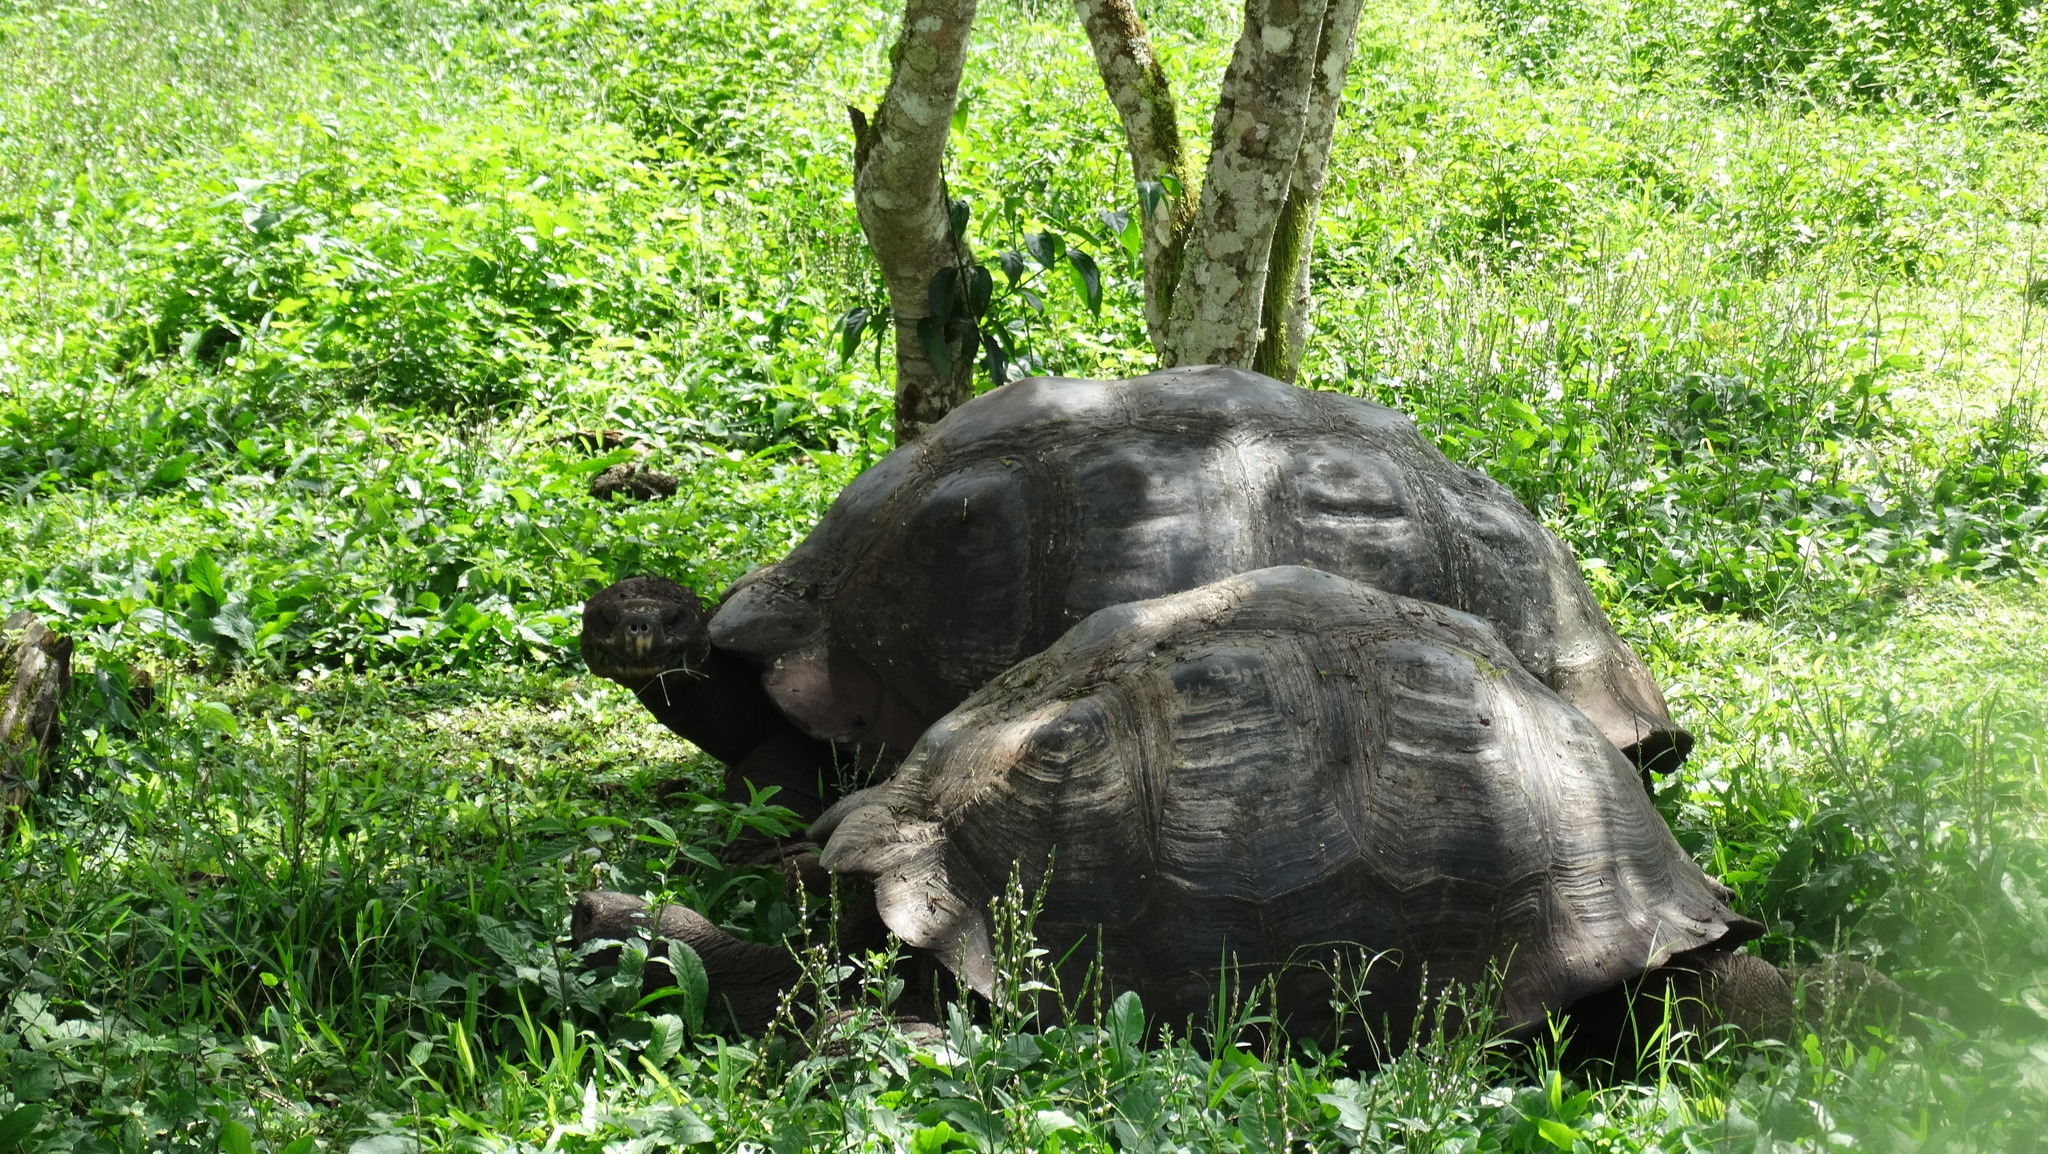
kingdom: Animalia
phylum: Chordata
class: Testudines
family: Testudinidae
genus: Chelonoidis
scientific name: Chelonoidis porteri
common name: Indefatigable island giant tortoise
